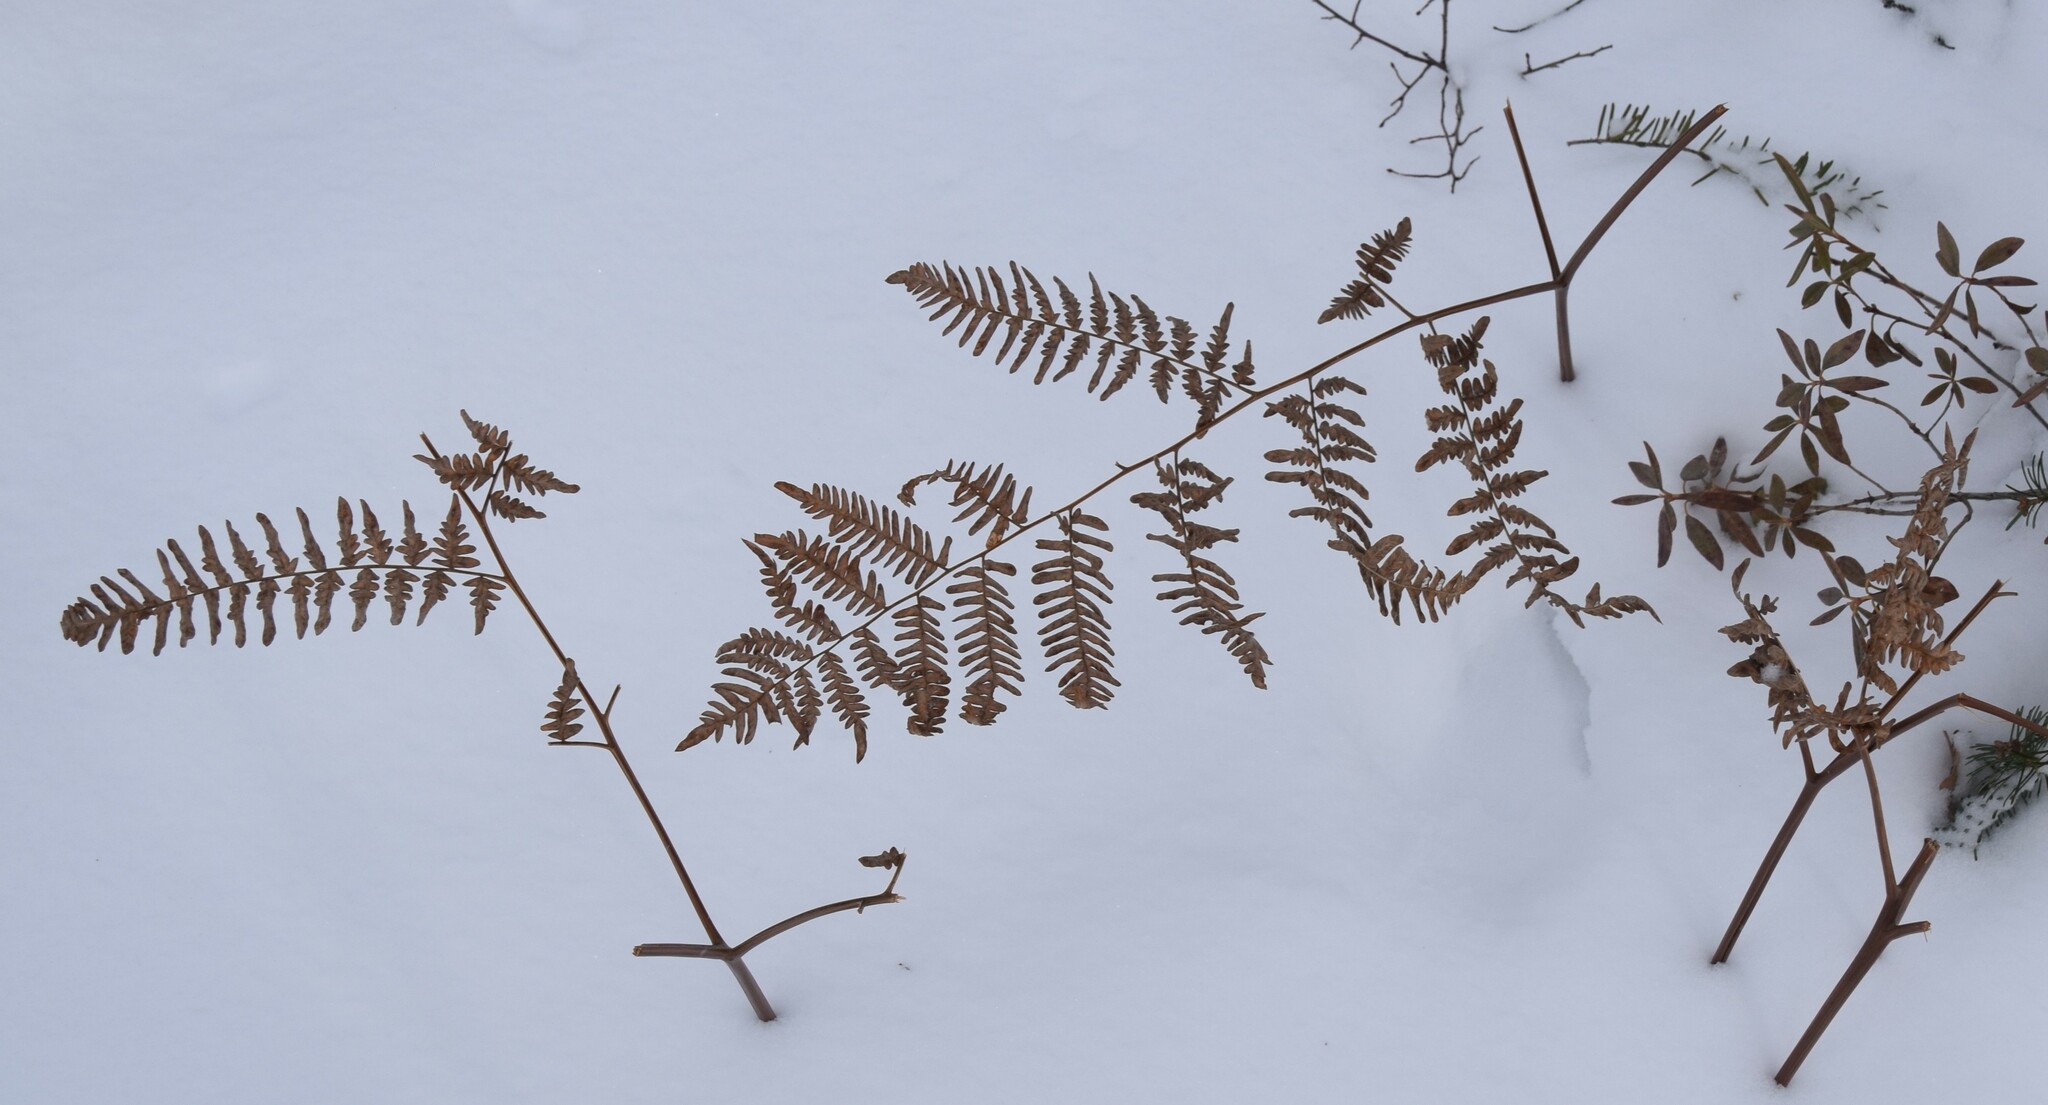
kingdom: Plantae
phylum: Tracheophyta
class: Polypodiopsida
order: Polypodiales
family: Dennstaedtiaceae
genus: Pteridium
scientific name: Pteridium aquilinum
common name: Bracken
